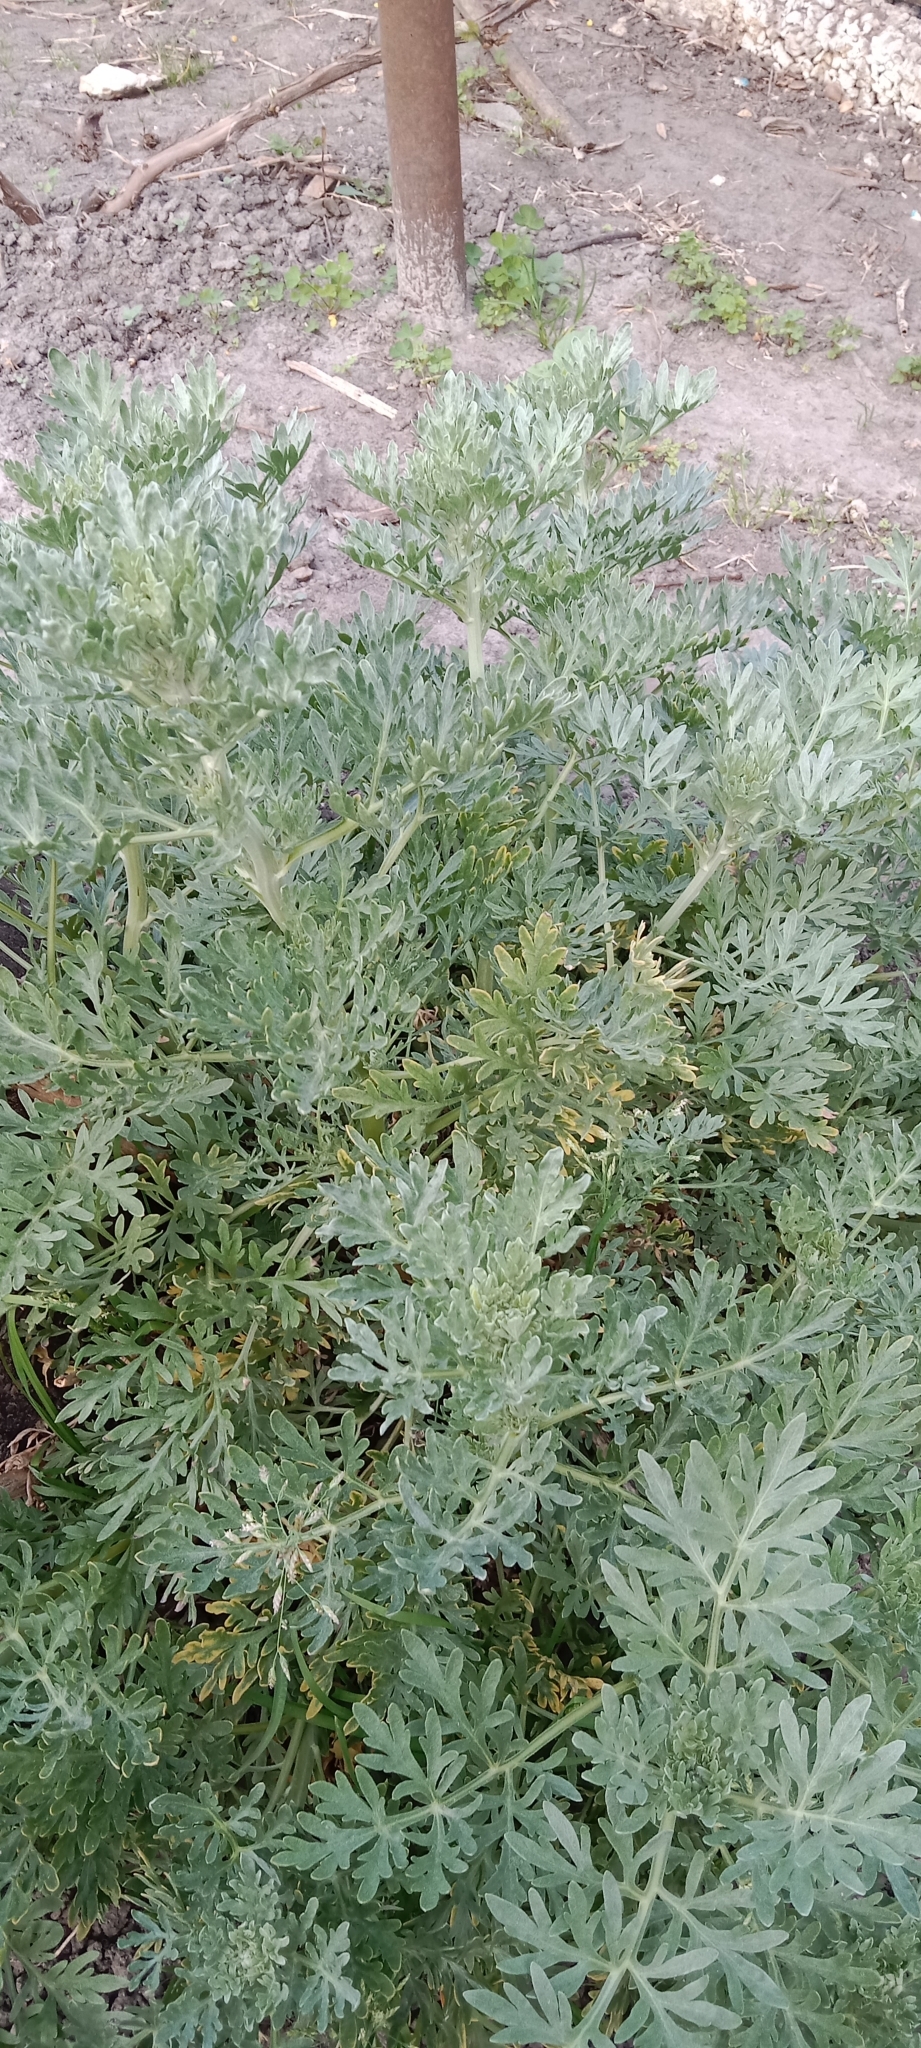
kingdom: Plantae
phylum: Tracheophyta
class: Magnoliopsida
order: Asterales
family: Asteraceae
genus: Artemisia
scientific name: Artemisia absinthium
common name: Wormwood
